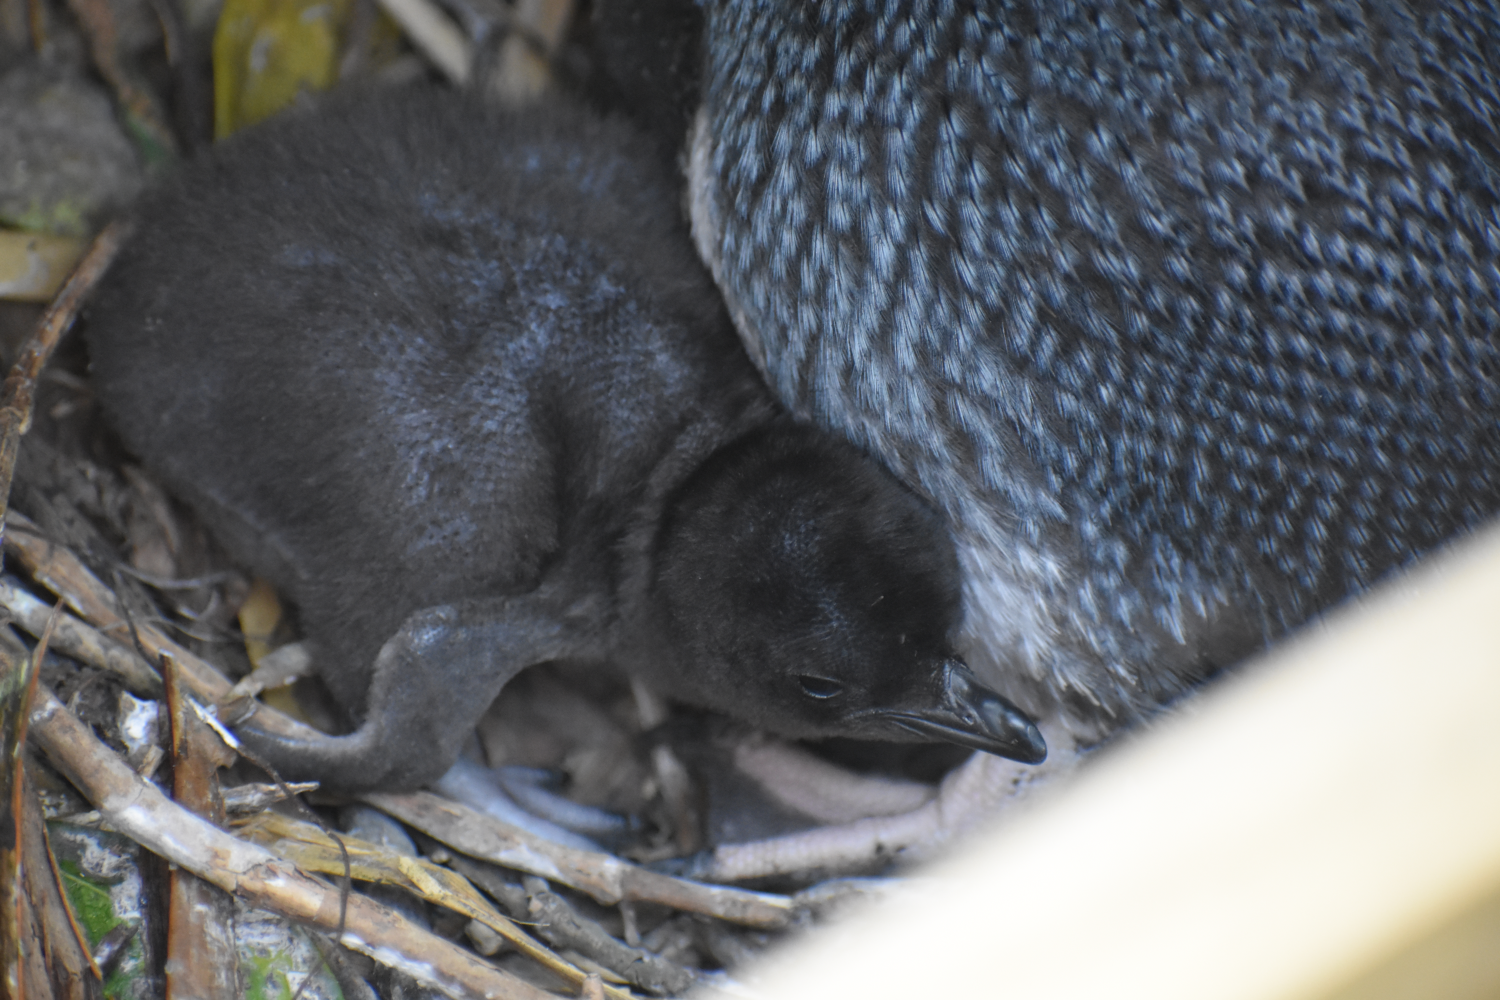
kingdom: Animalia
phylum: Chordata
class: Aves
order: Sphenisciformes
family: Spheniscidae
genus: Eudyptula
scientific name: Eudyptula minor
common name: Little penguin
